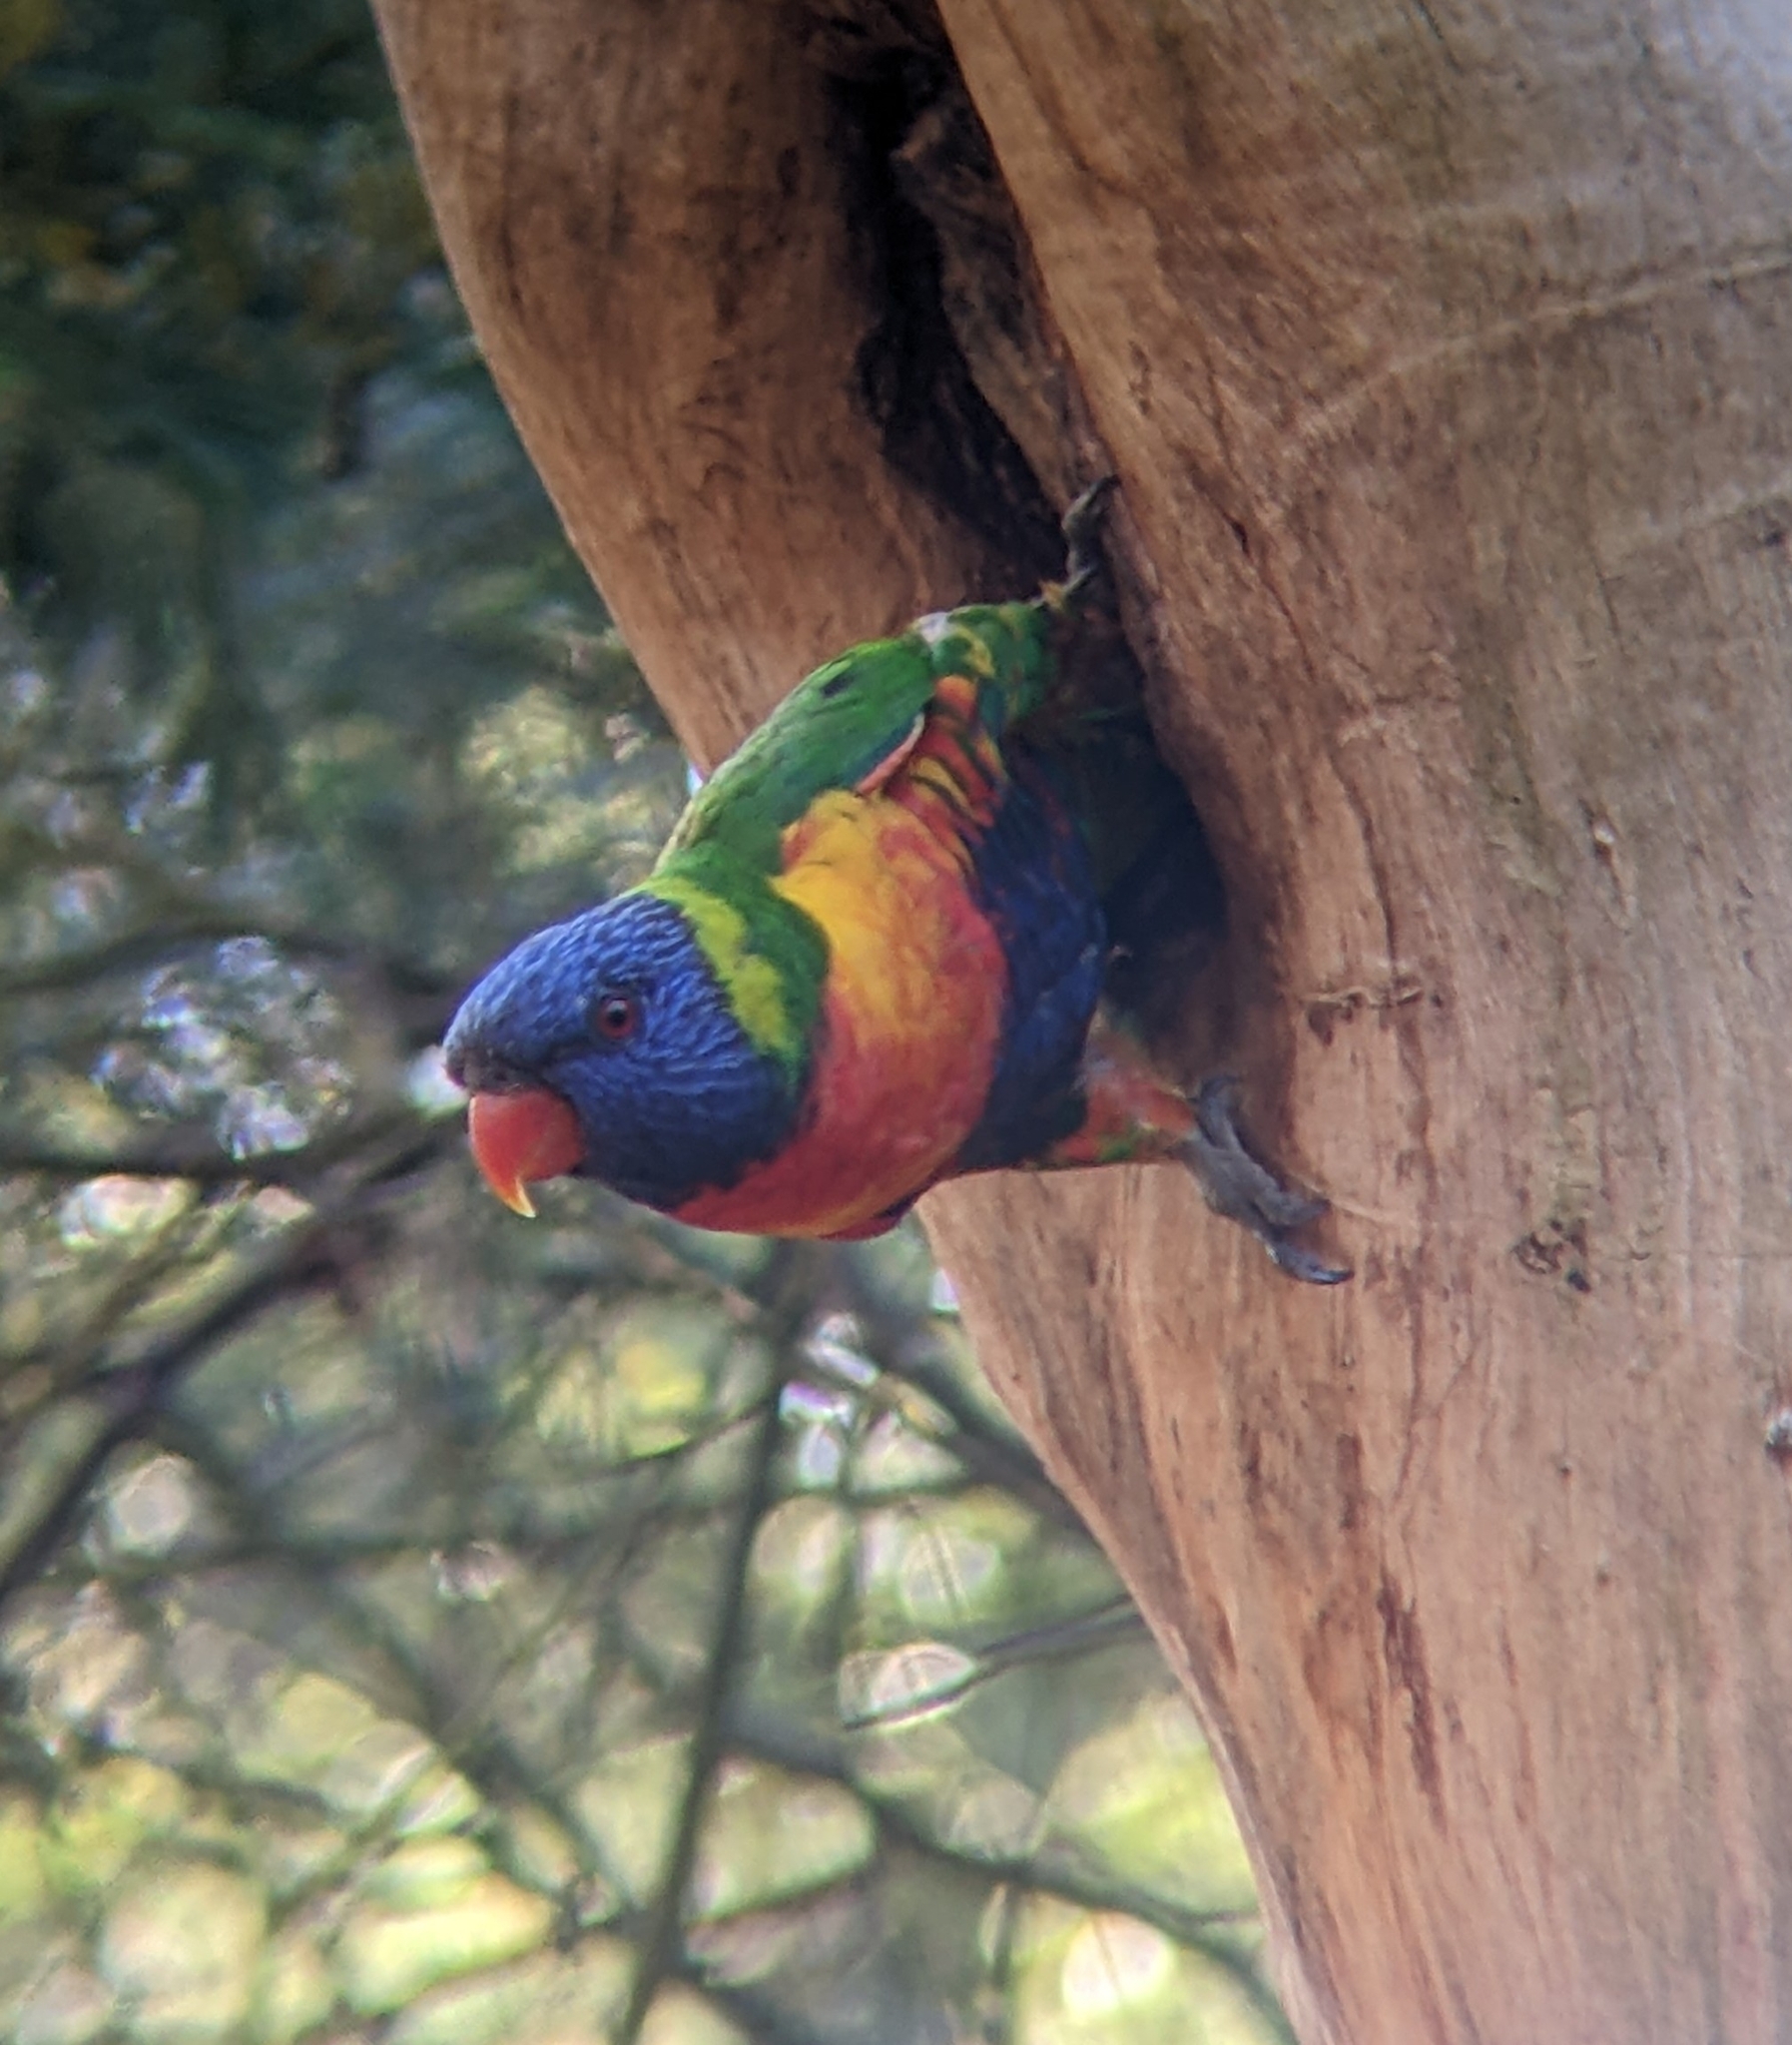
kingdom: Animalia
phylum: Chordata
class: Aves
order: Psittaciformes
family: Psittacidae
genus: Trichoglossus
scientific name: Trichoglossus haematodus
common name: Coconut lorikeet
